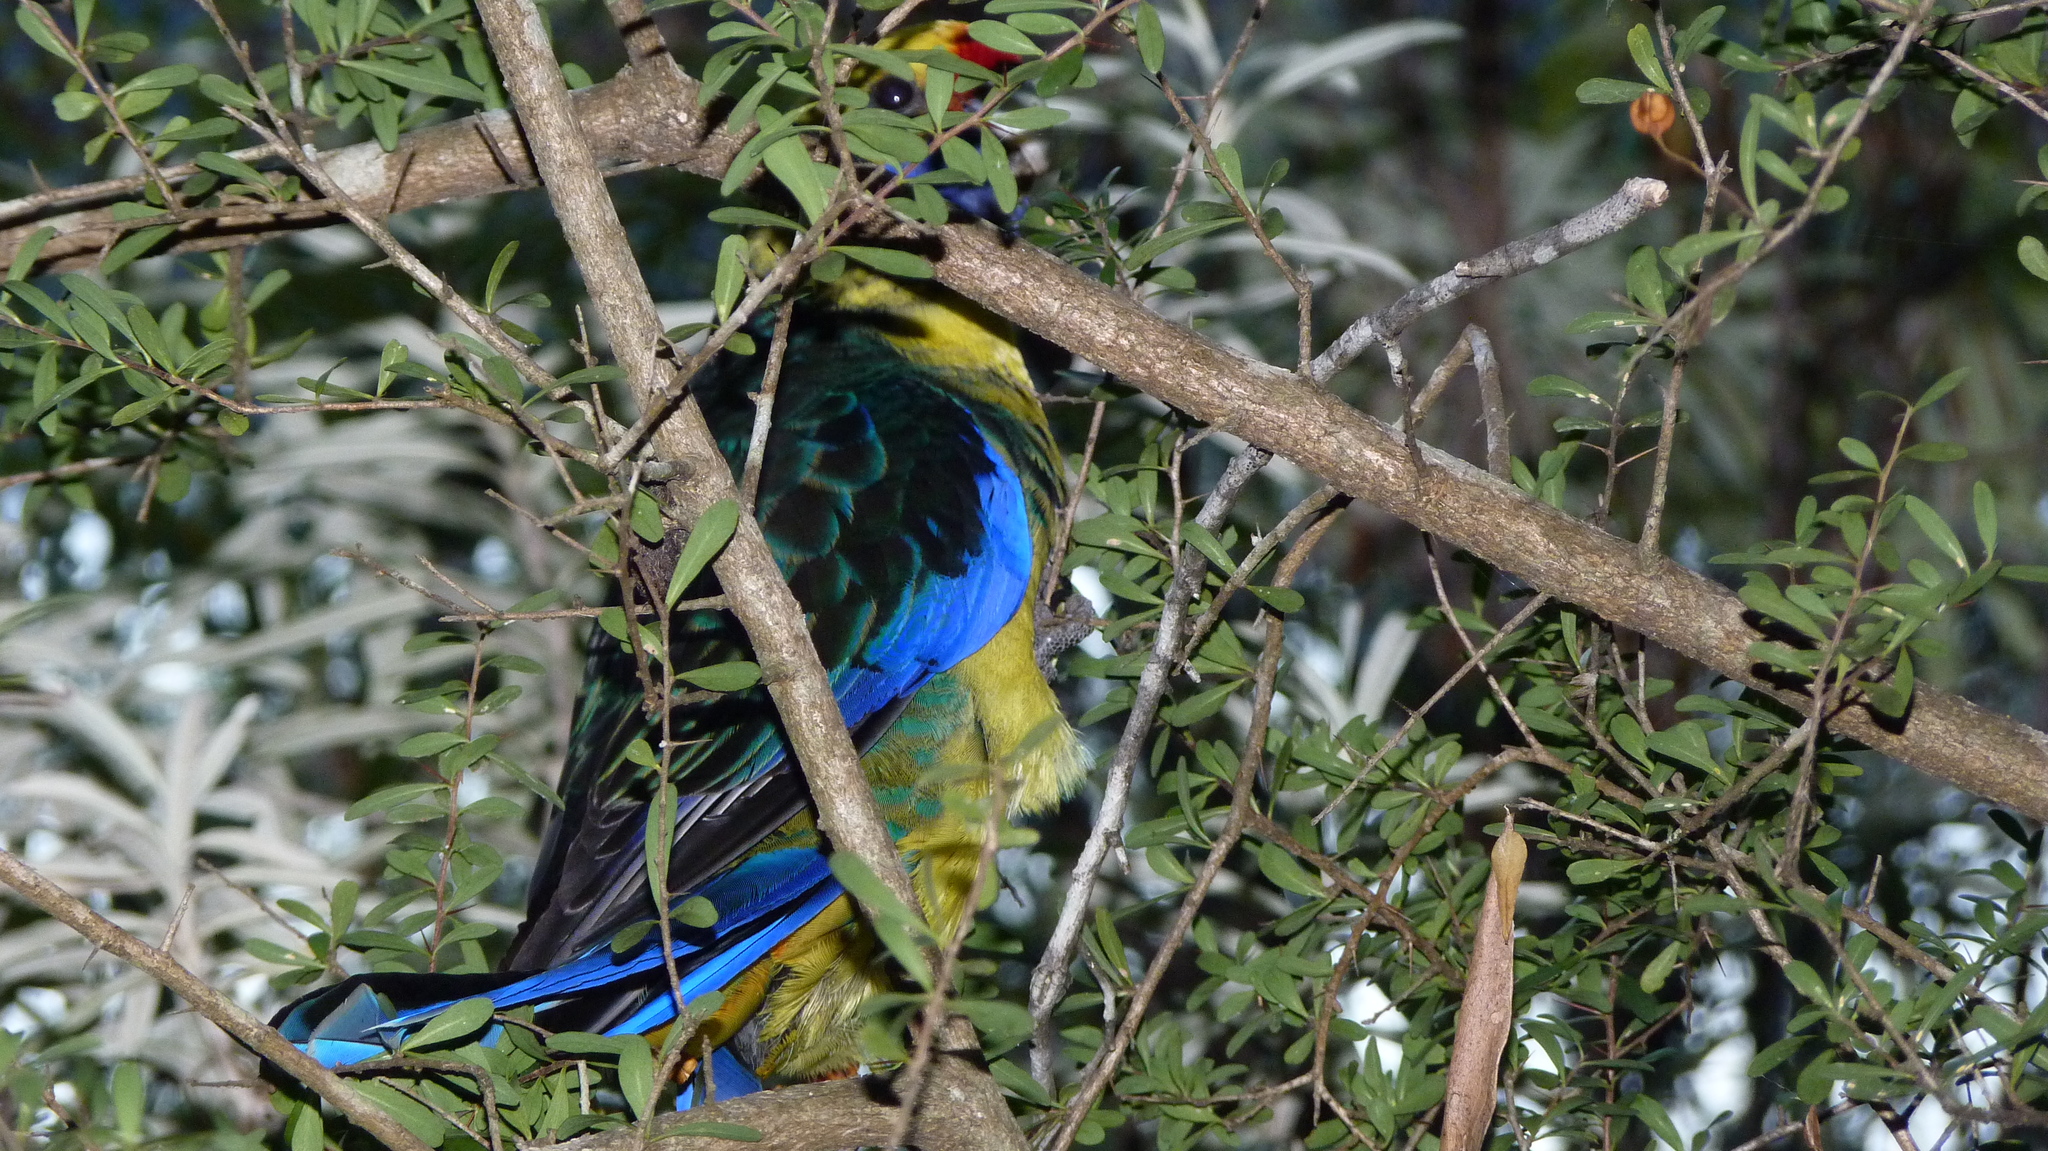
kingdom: Animalia
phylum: Chordata
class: Aves
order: Psittaciformes
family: Psittacidae
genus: Platycercus
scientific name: Platycercus caledonicus
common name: Green rosella
